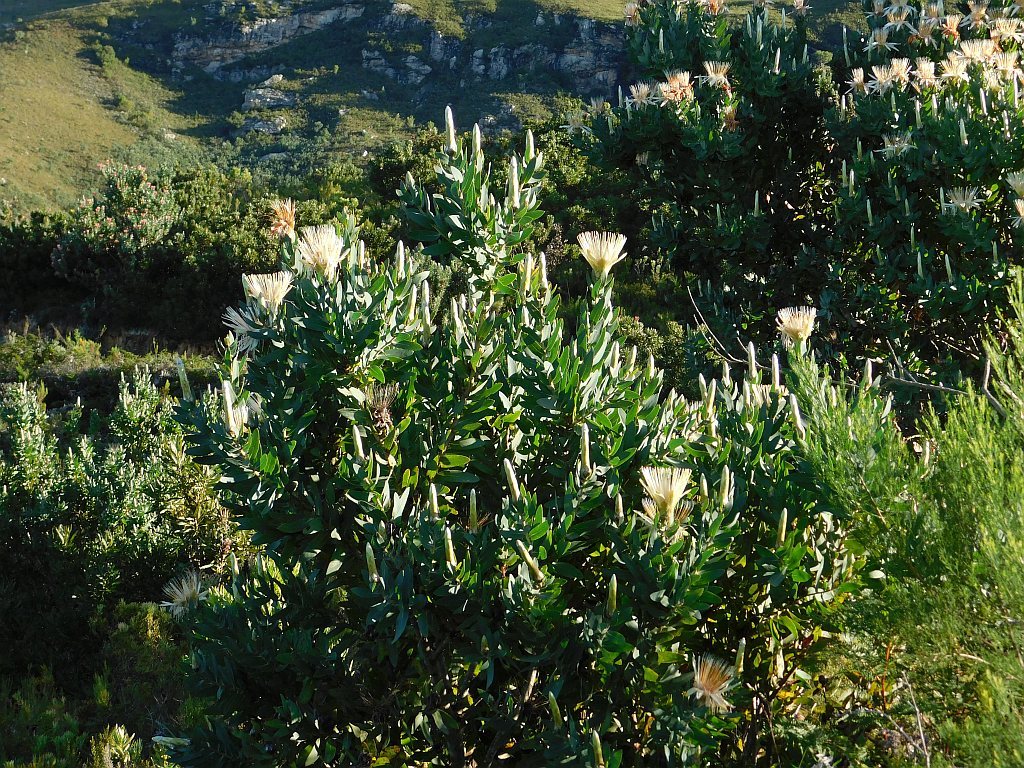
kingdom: Plantae
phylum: Tracheophyta
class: Magnoliopsida
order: Proteales
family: Proteaceae
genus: Protea
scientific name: Protea aurea
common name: Shuttlecock sugarbush
